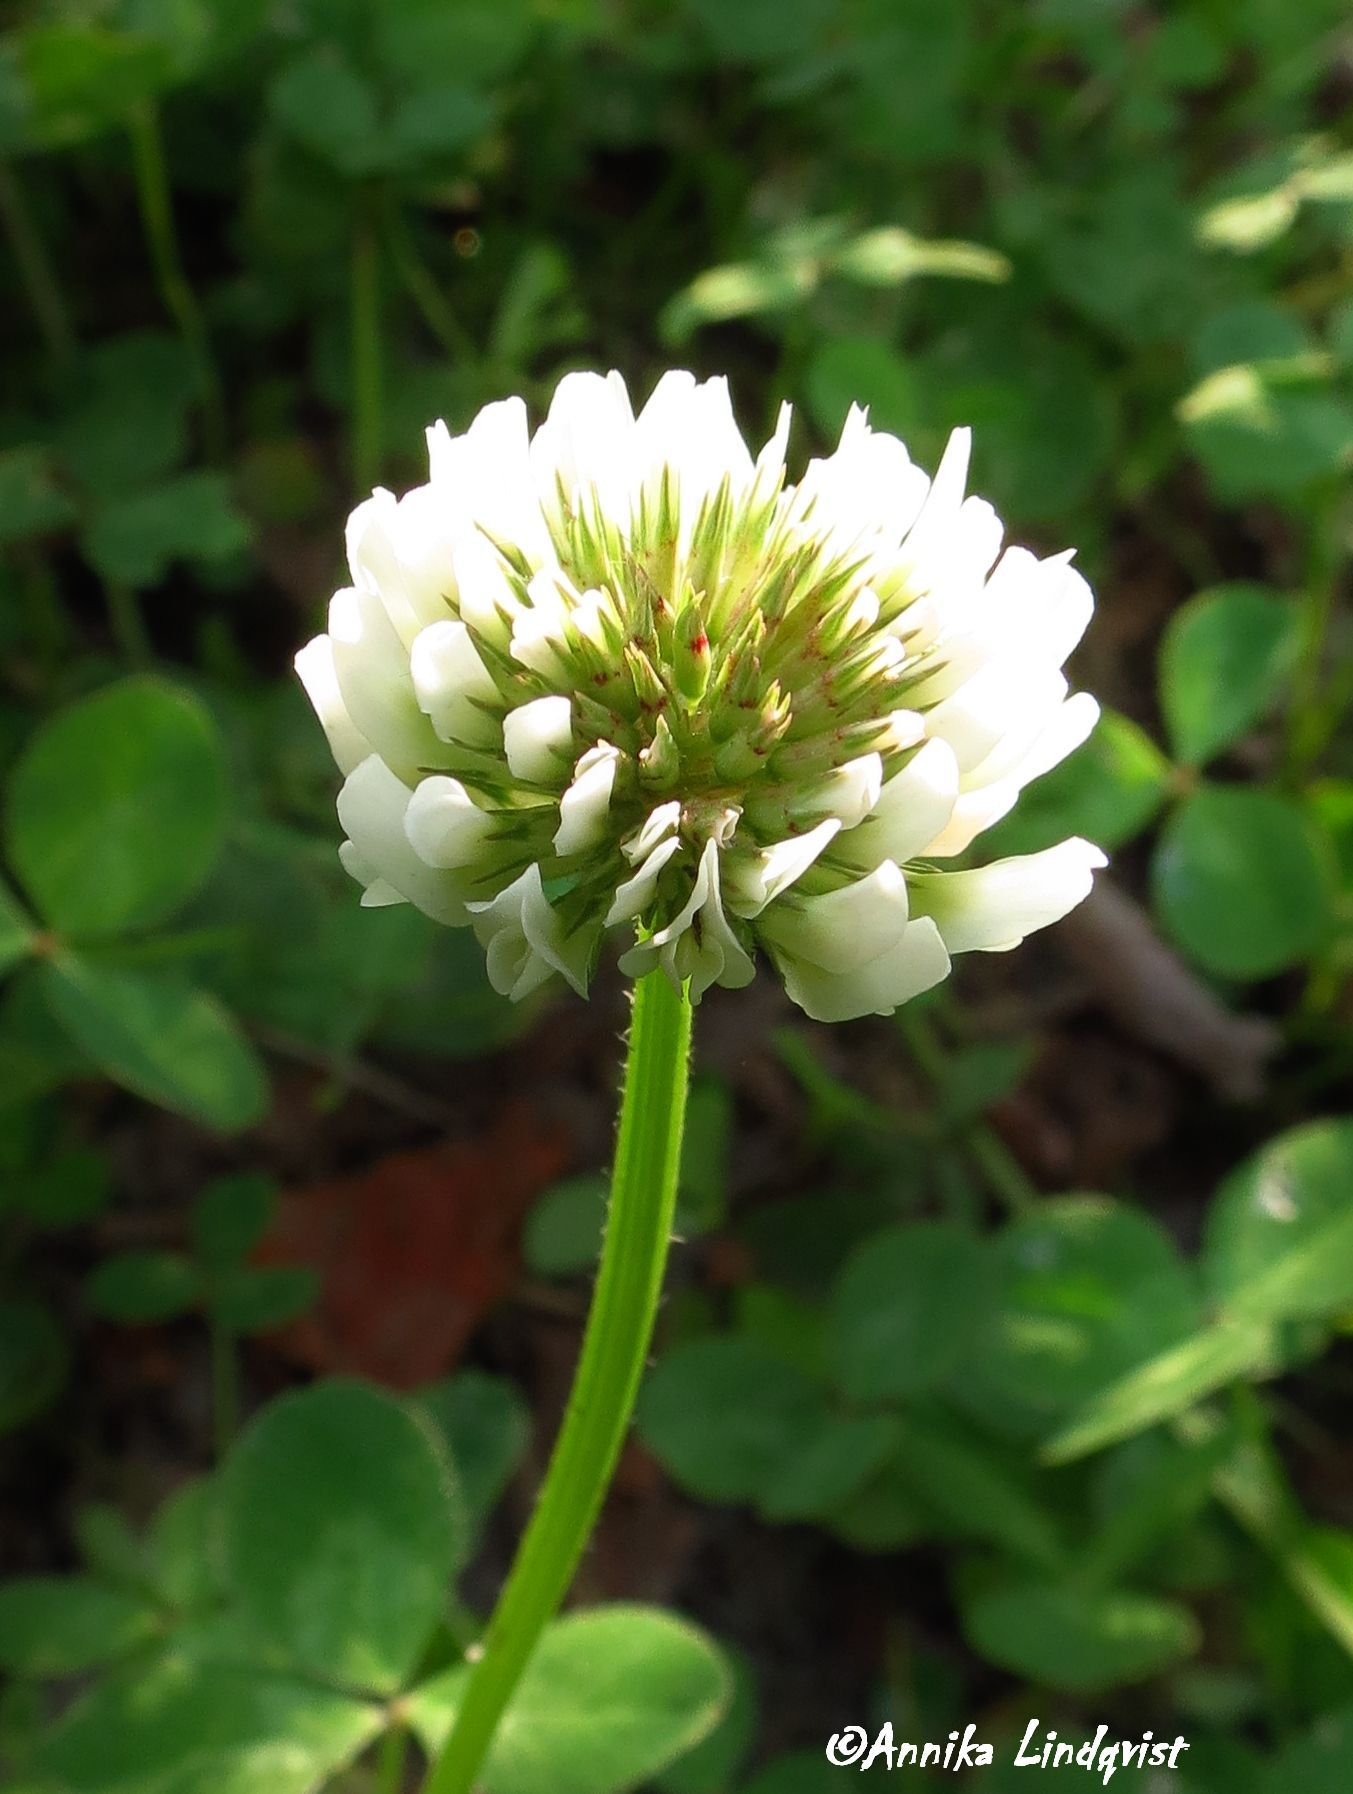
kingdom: Plantae
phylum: Tracheophyta
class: Magnoliopsida
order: Fabales
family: Fabaceae
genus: Trifolium
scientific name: Trifolium repens
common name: White clover
